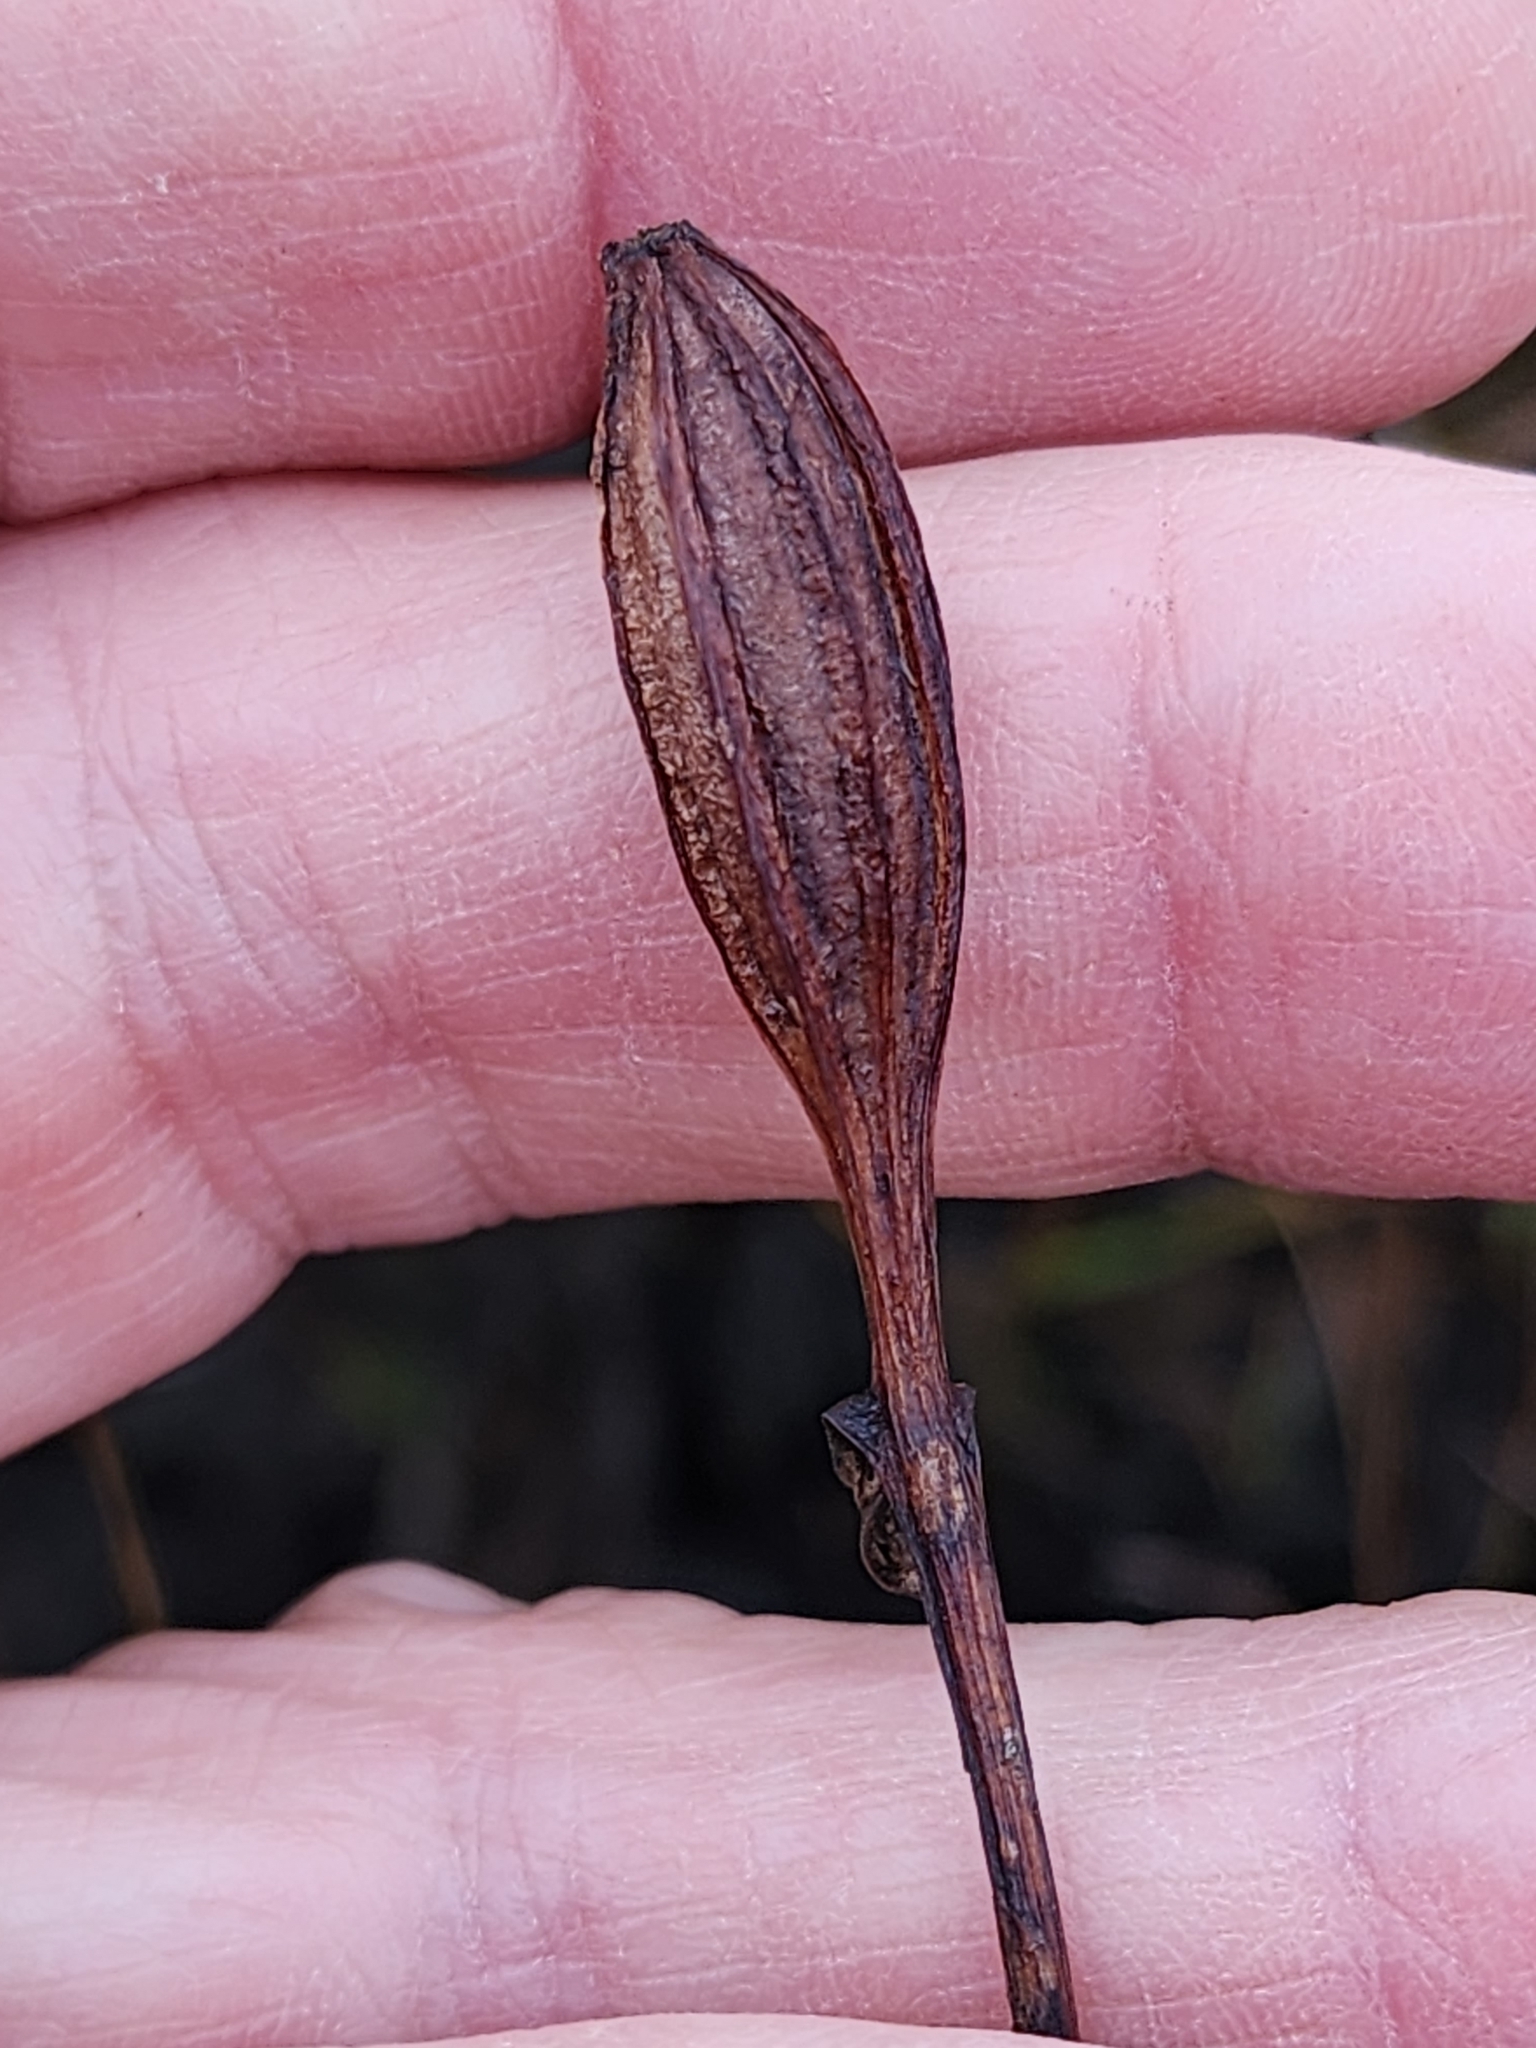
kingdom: Plantae
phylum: Tracheophyta
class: Liliopsida
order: Asparagales
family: Orchidaceae
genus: Pogonia
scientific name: Pogonia ophioglossoides
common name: Rose pogonia
